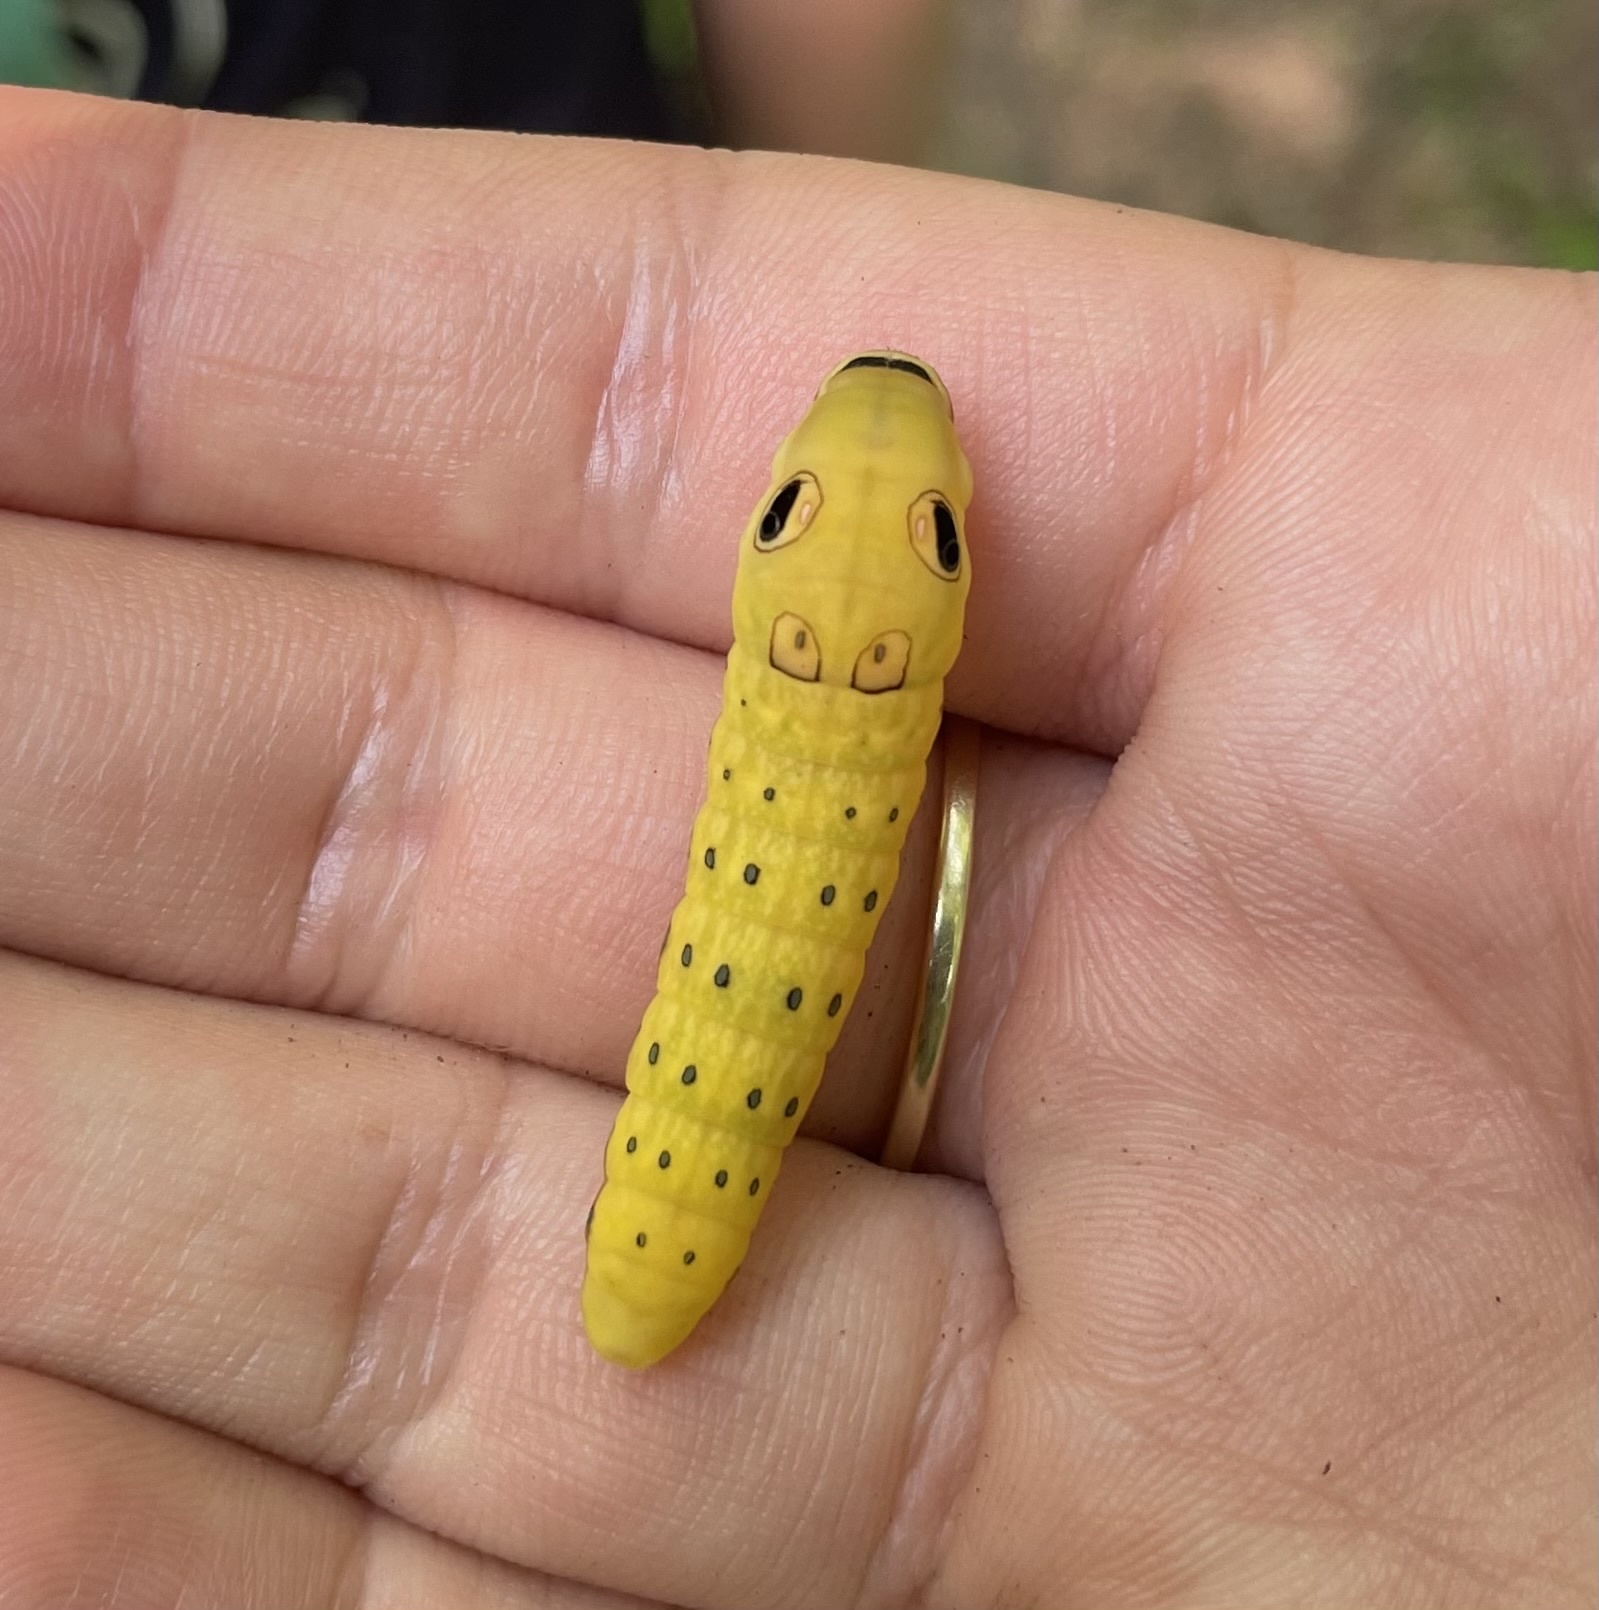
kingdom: Animalia
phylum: Arthropoda
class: Insecta
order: Lepidoptera
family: Papilionidae
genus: Papilio
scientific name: Papilio troilus
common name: Spicebush swallowtail
